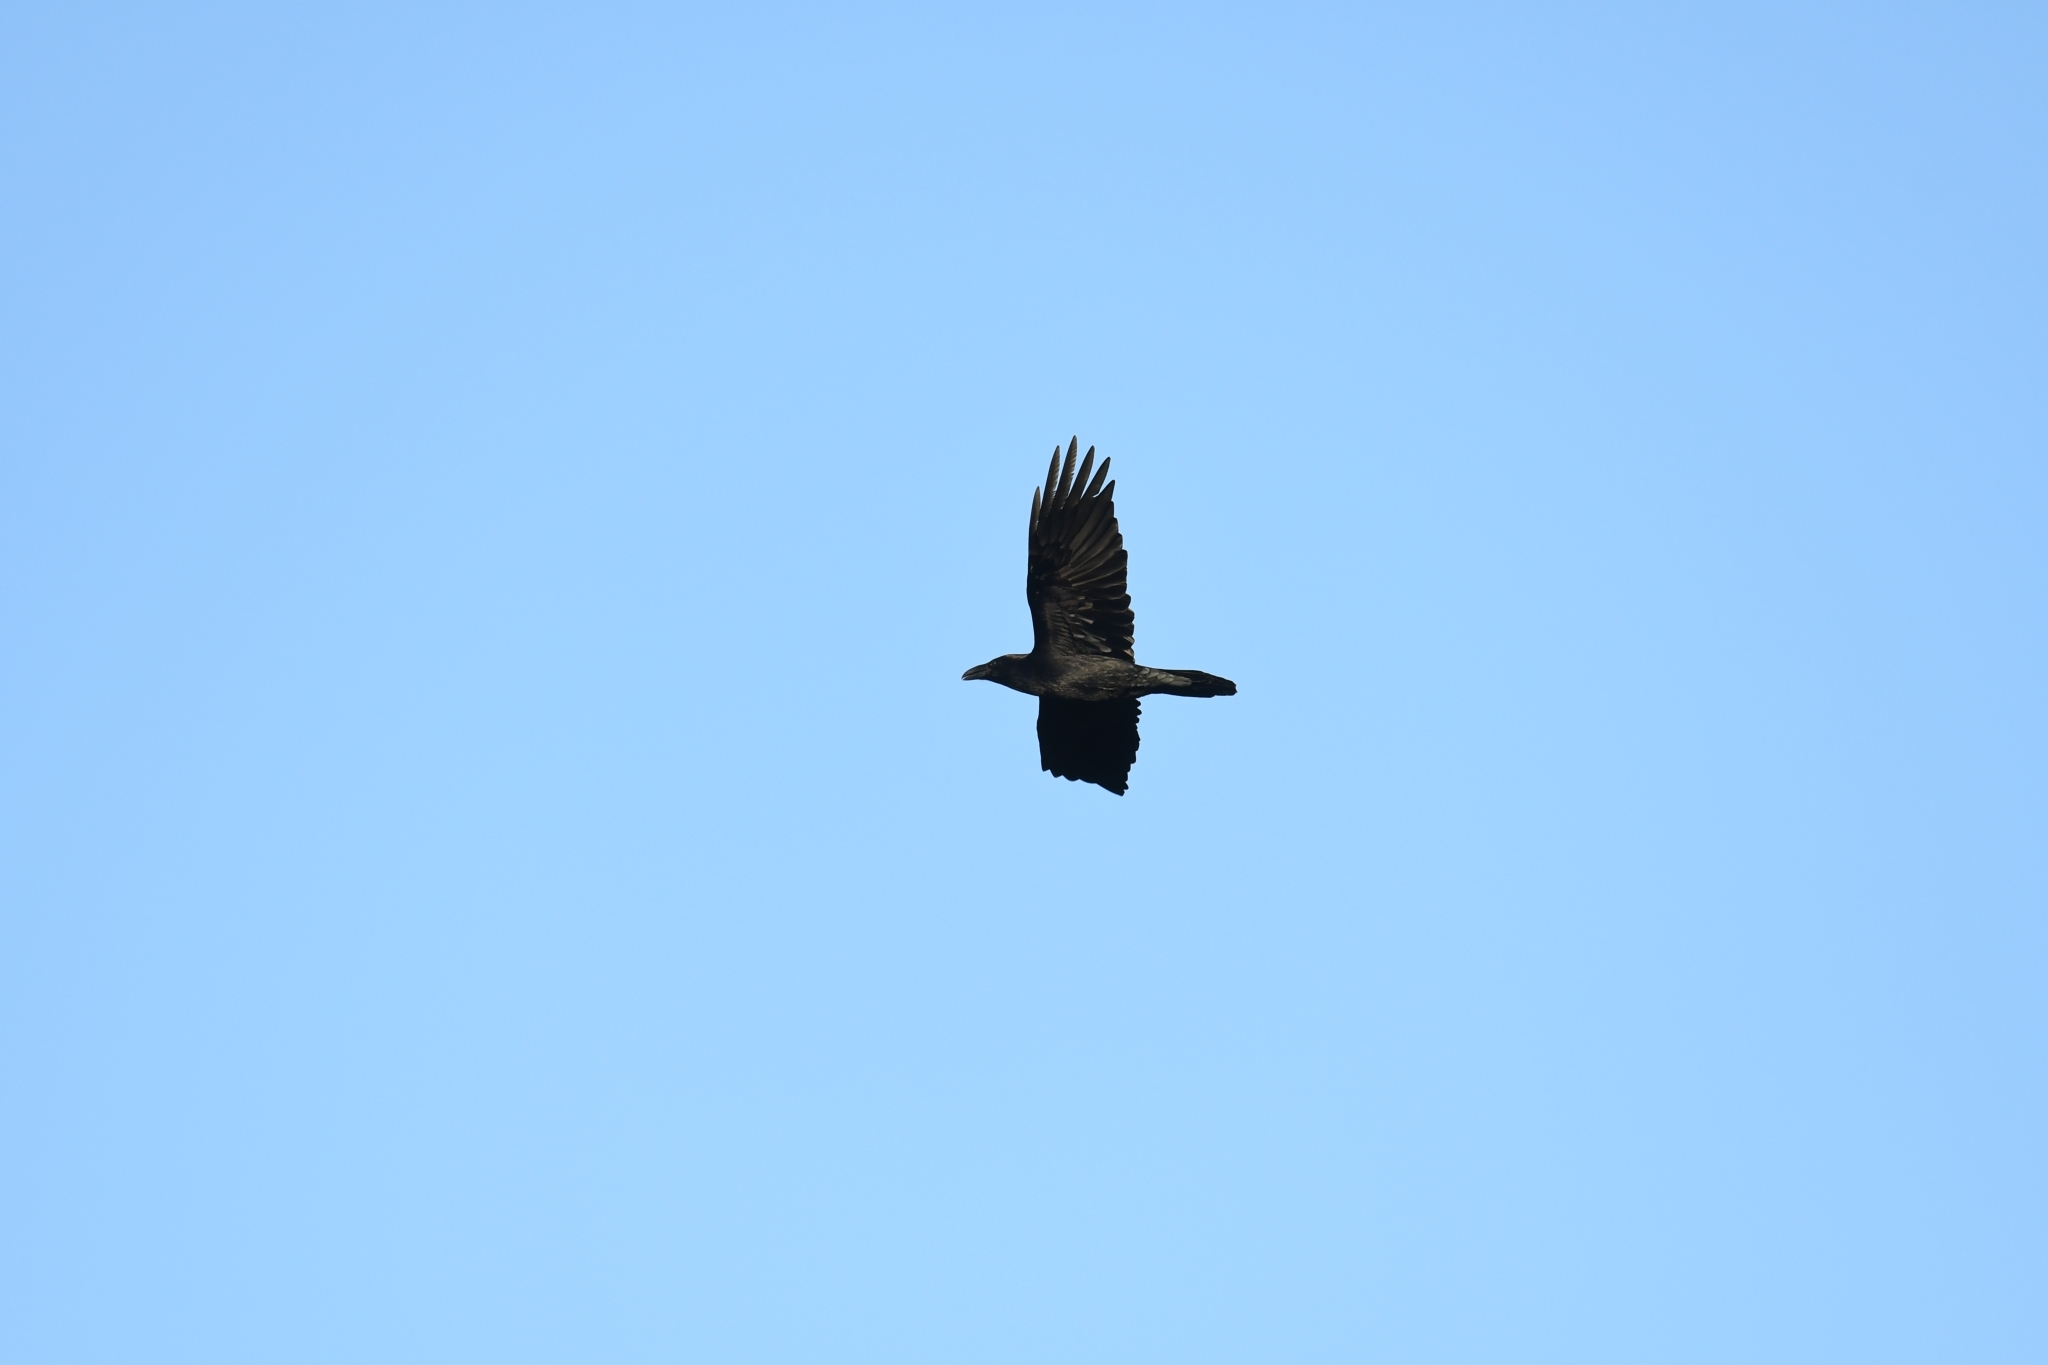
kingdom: Animalia
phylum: Chordata
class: Aves
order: Passeriformes
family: Corvidae
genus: Corvus
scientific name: Corvus corax
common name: Common raven
